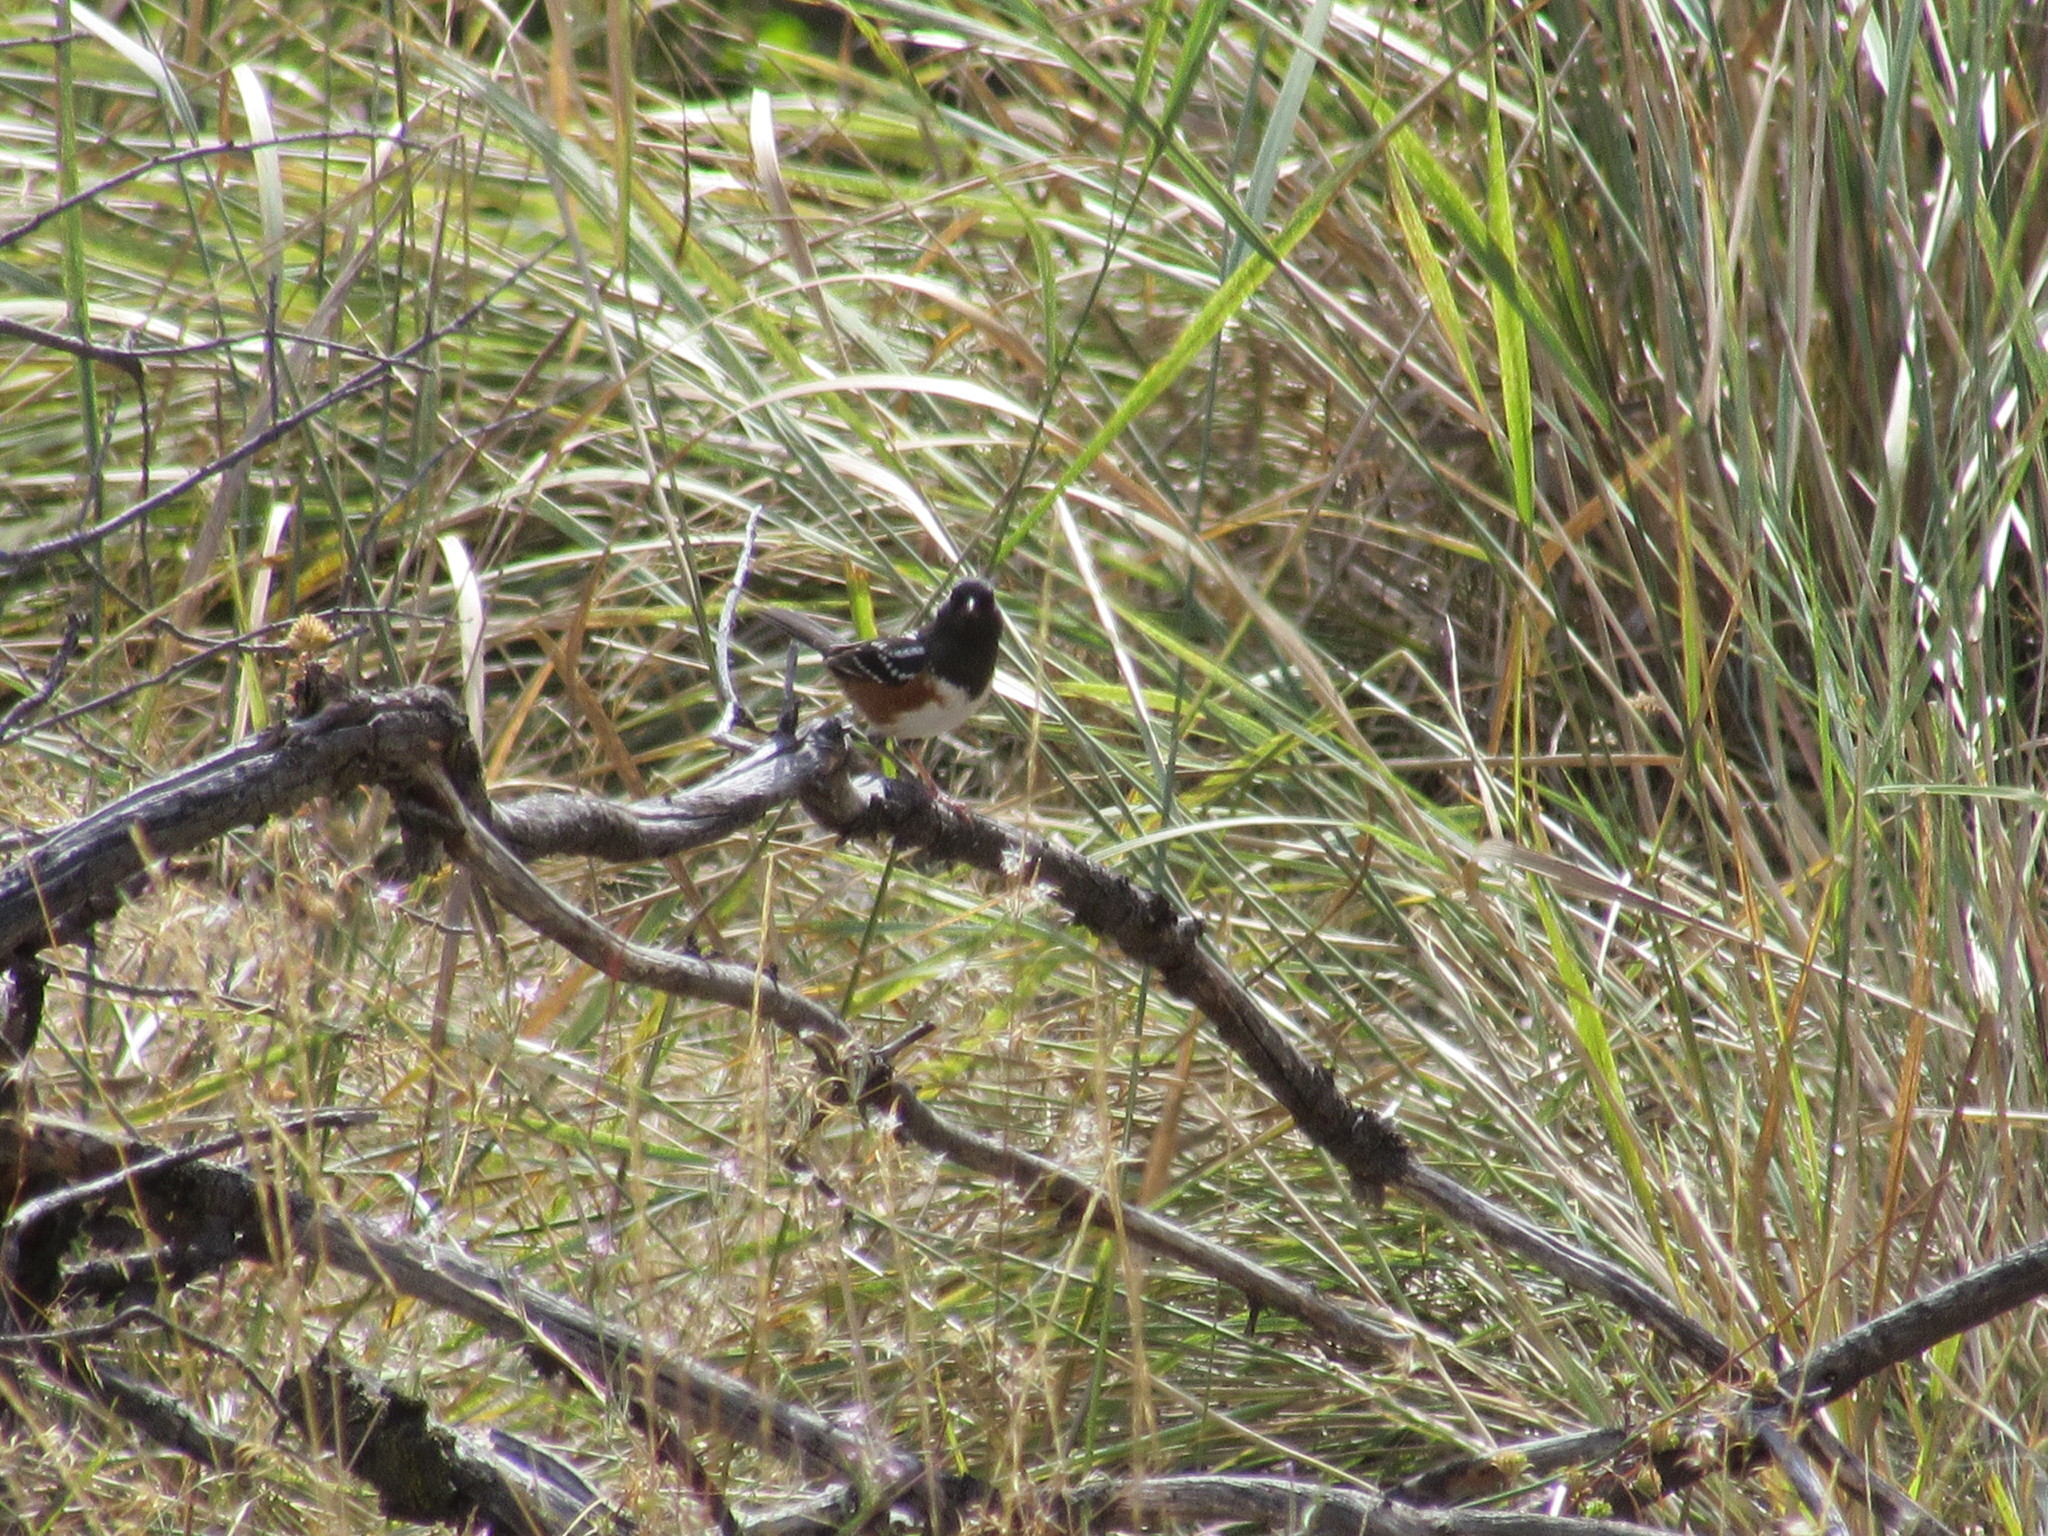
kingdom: Animalia
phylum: Chordata
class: Aves
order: Passeriformes
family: Passerellidae
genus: Pipilo
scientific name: Pipilo maculatus
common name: Spotted towhee
